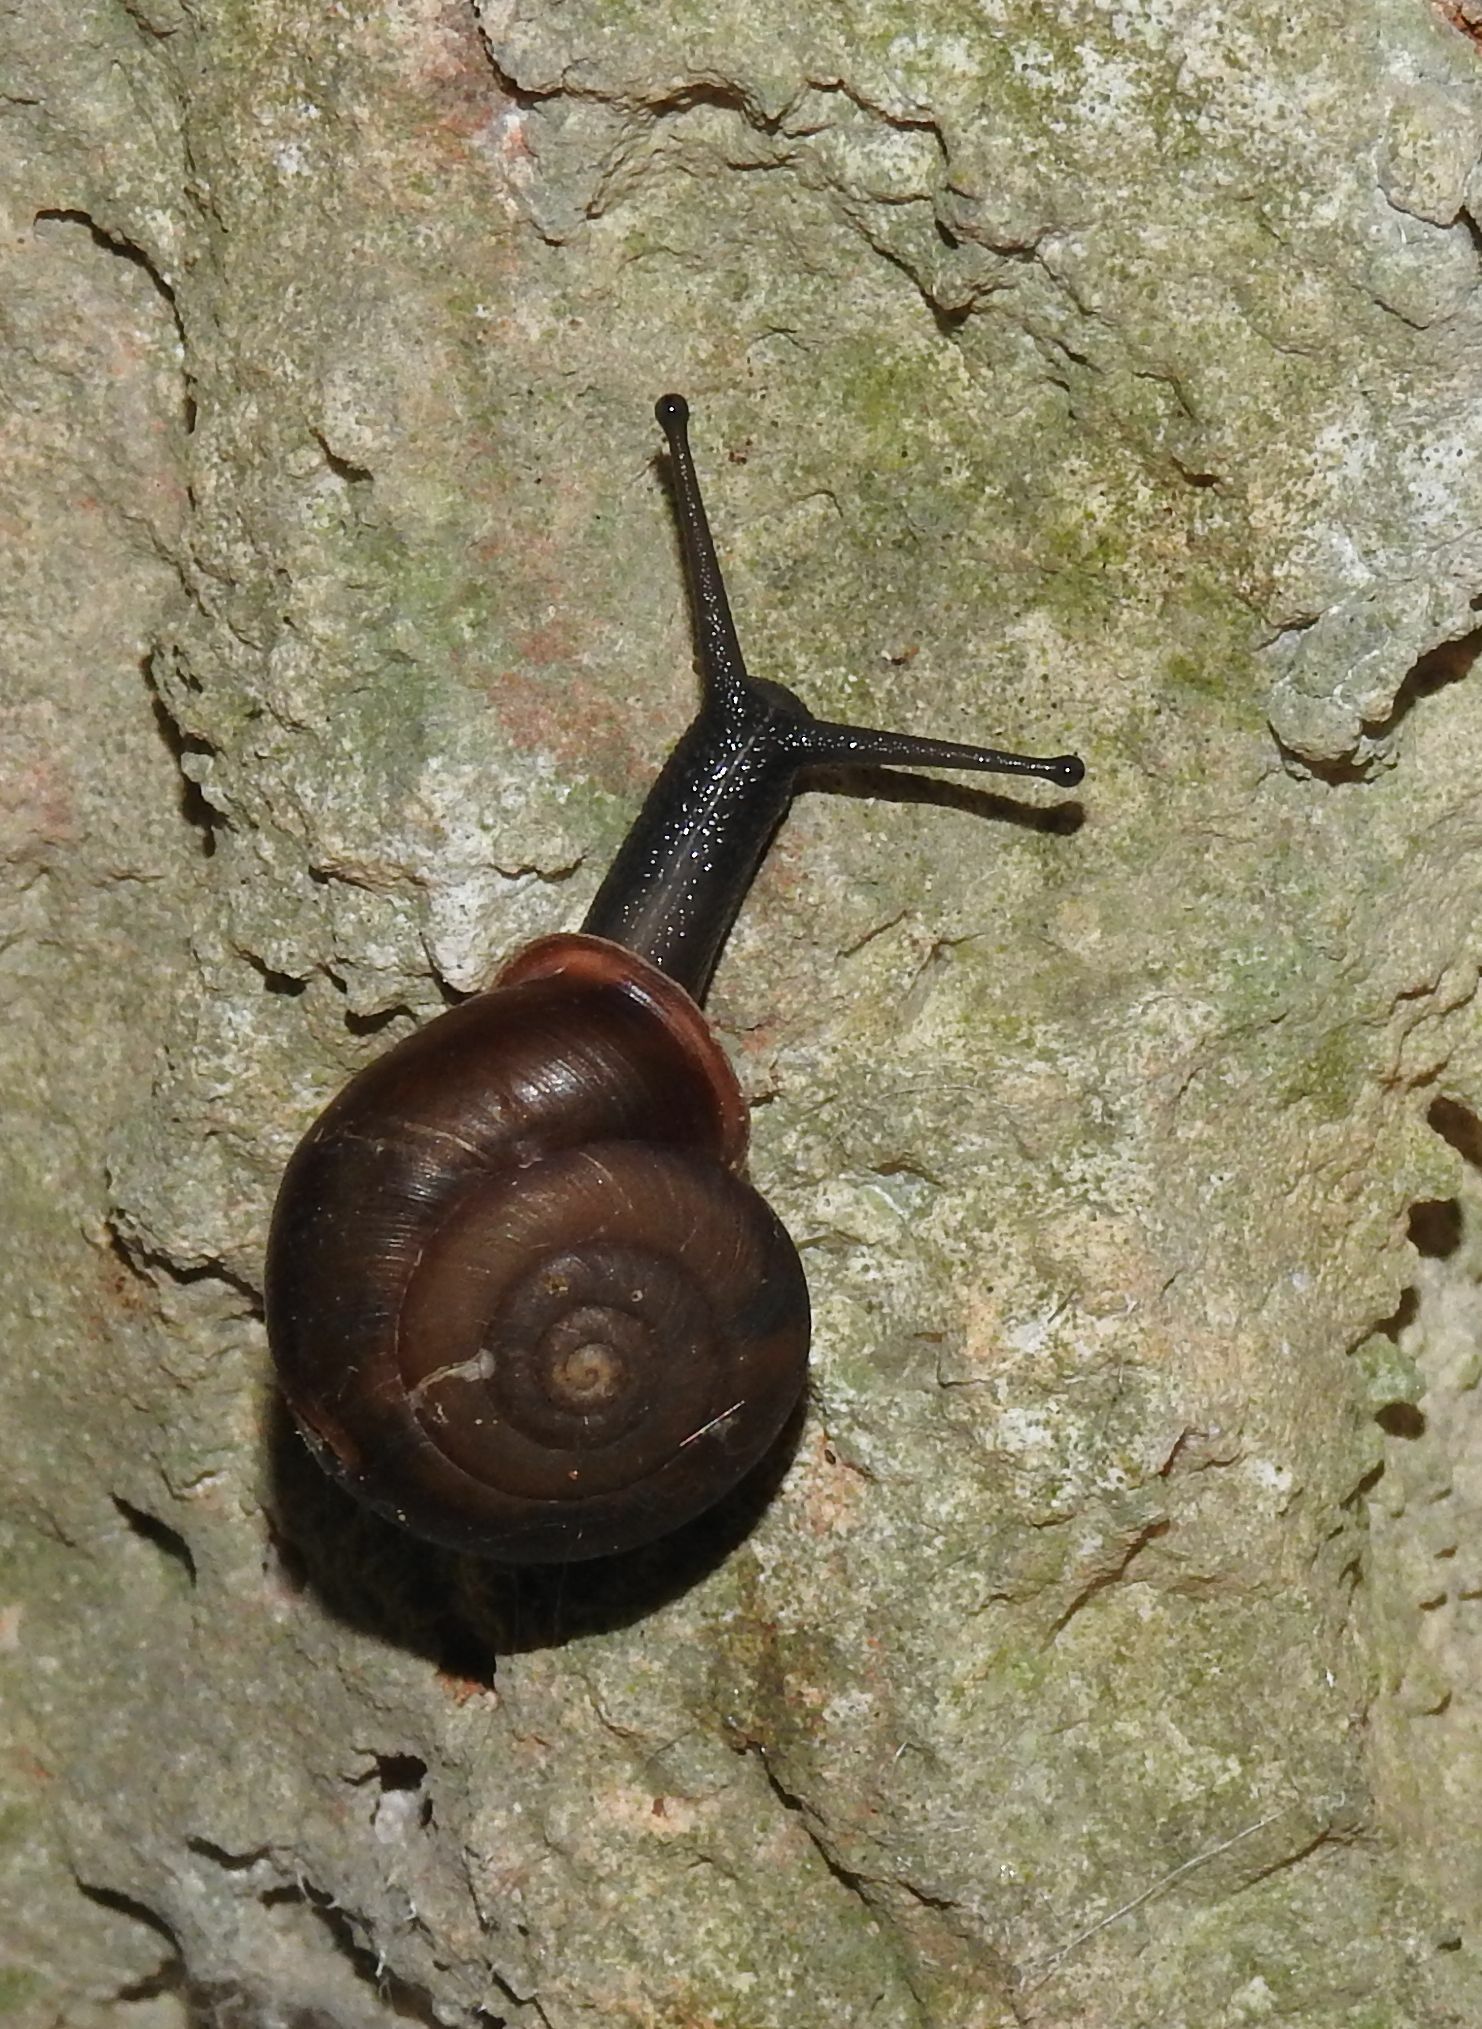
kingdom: Animalia
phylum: Mollusca
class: Gastropoda
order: Stylommatophora
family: Helicidae
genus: Corneola
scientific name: Corneola squamatina
